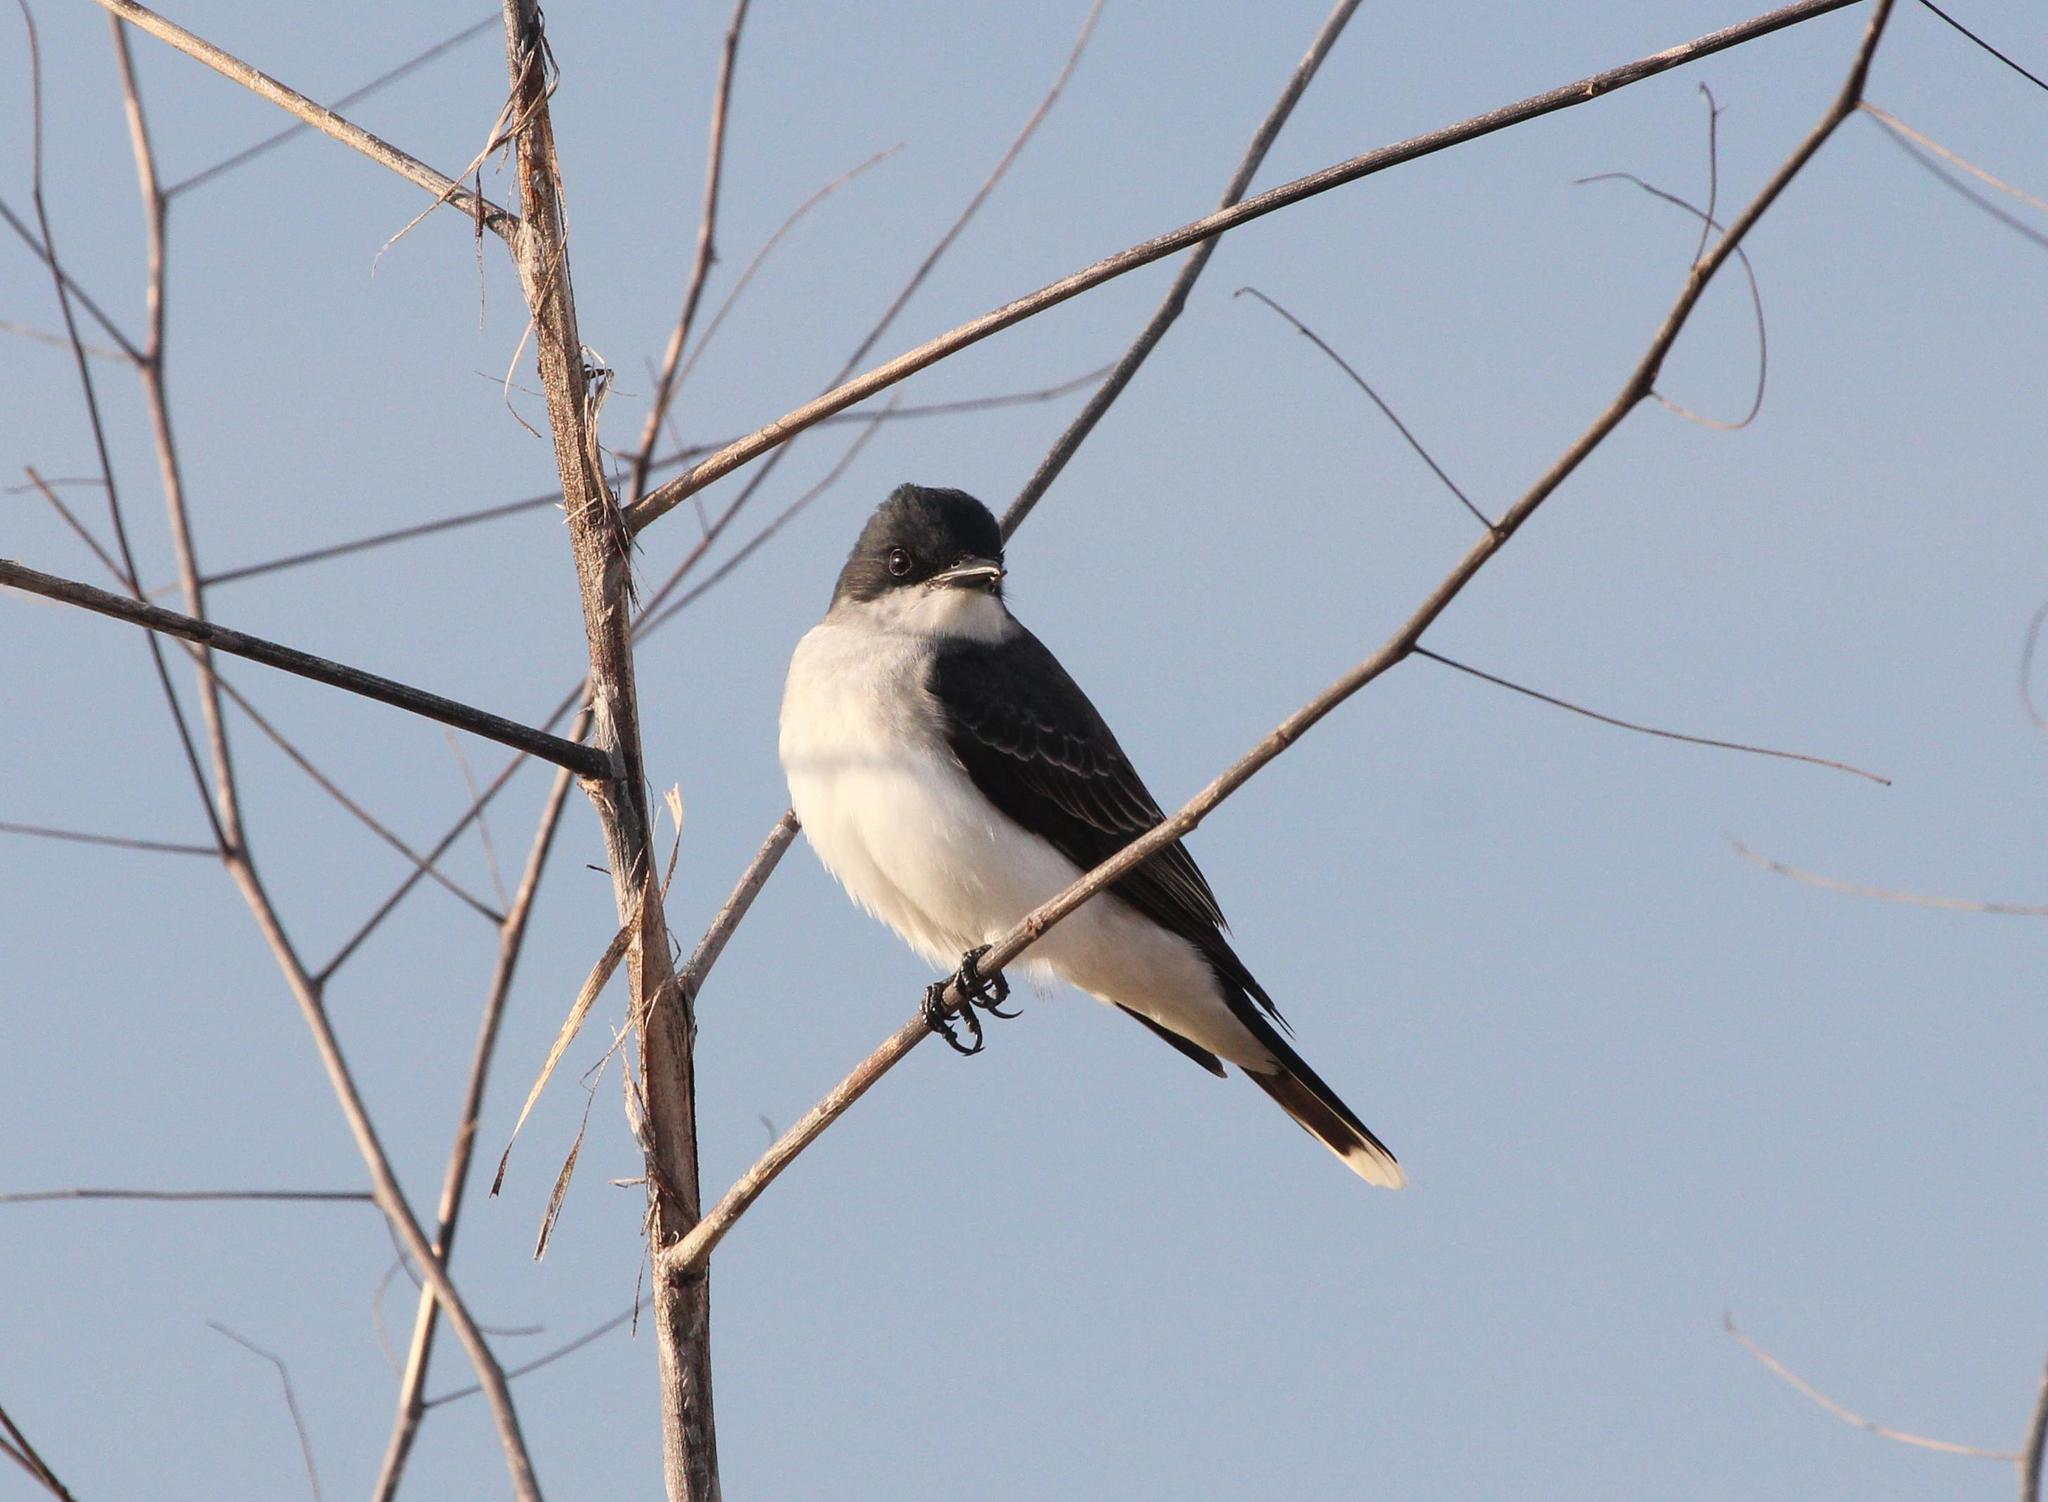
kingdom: Animalia
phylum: Chordata
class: Aves
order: Passeriformes
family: Tyrannidae
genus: Tyrannus
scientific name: Tyrannus tyrannus
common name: Eastern kingbird
